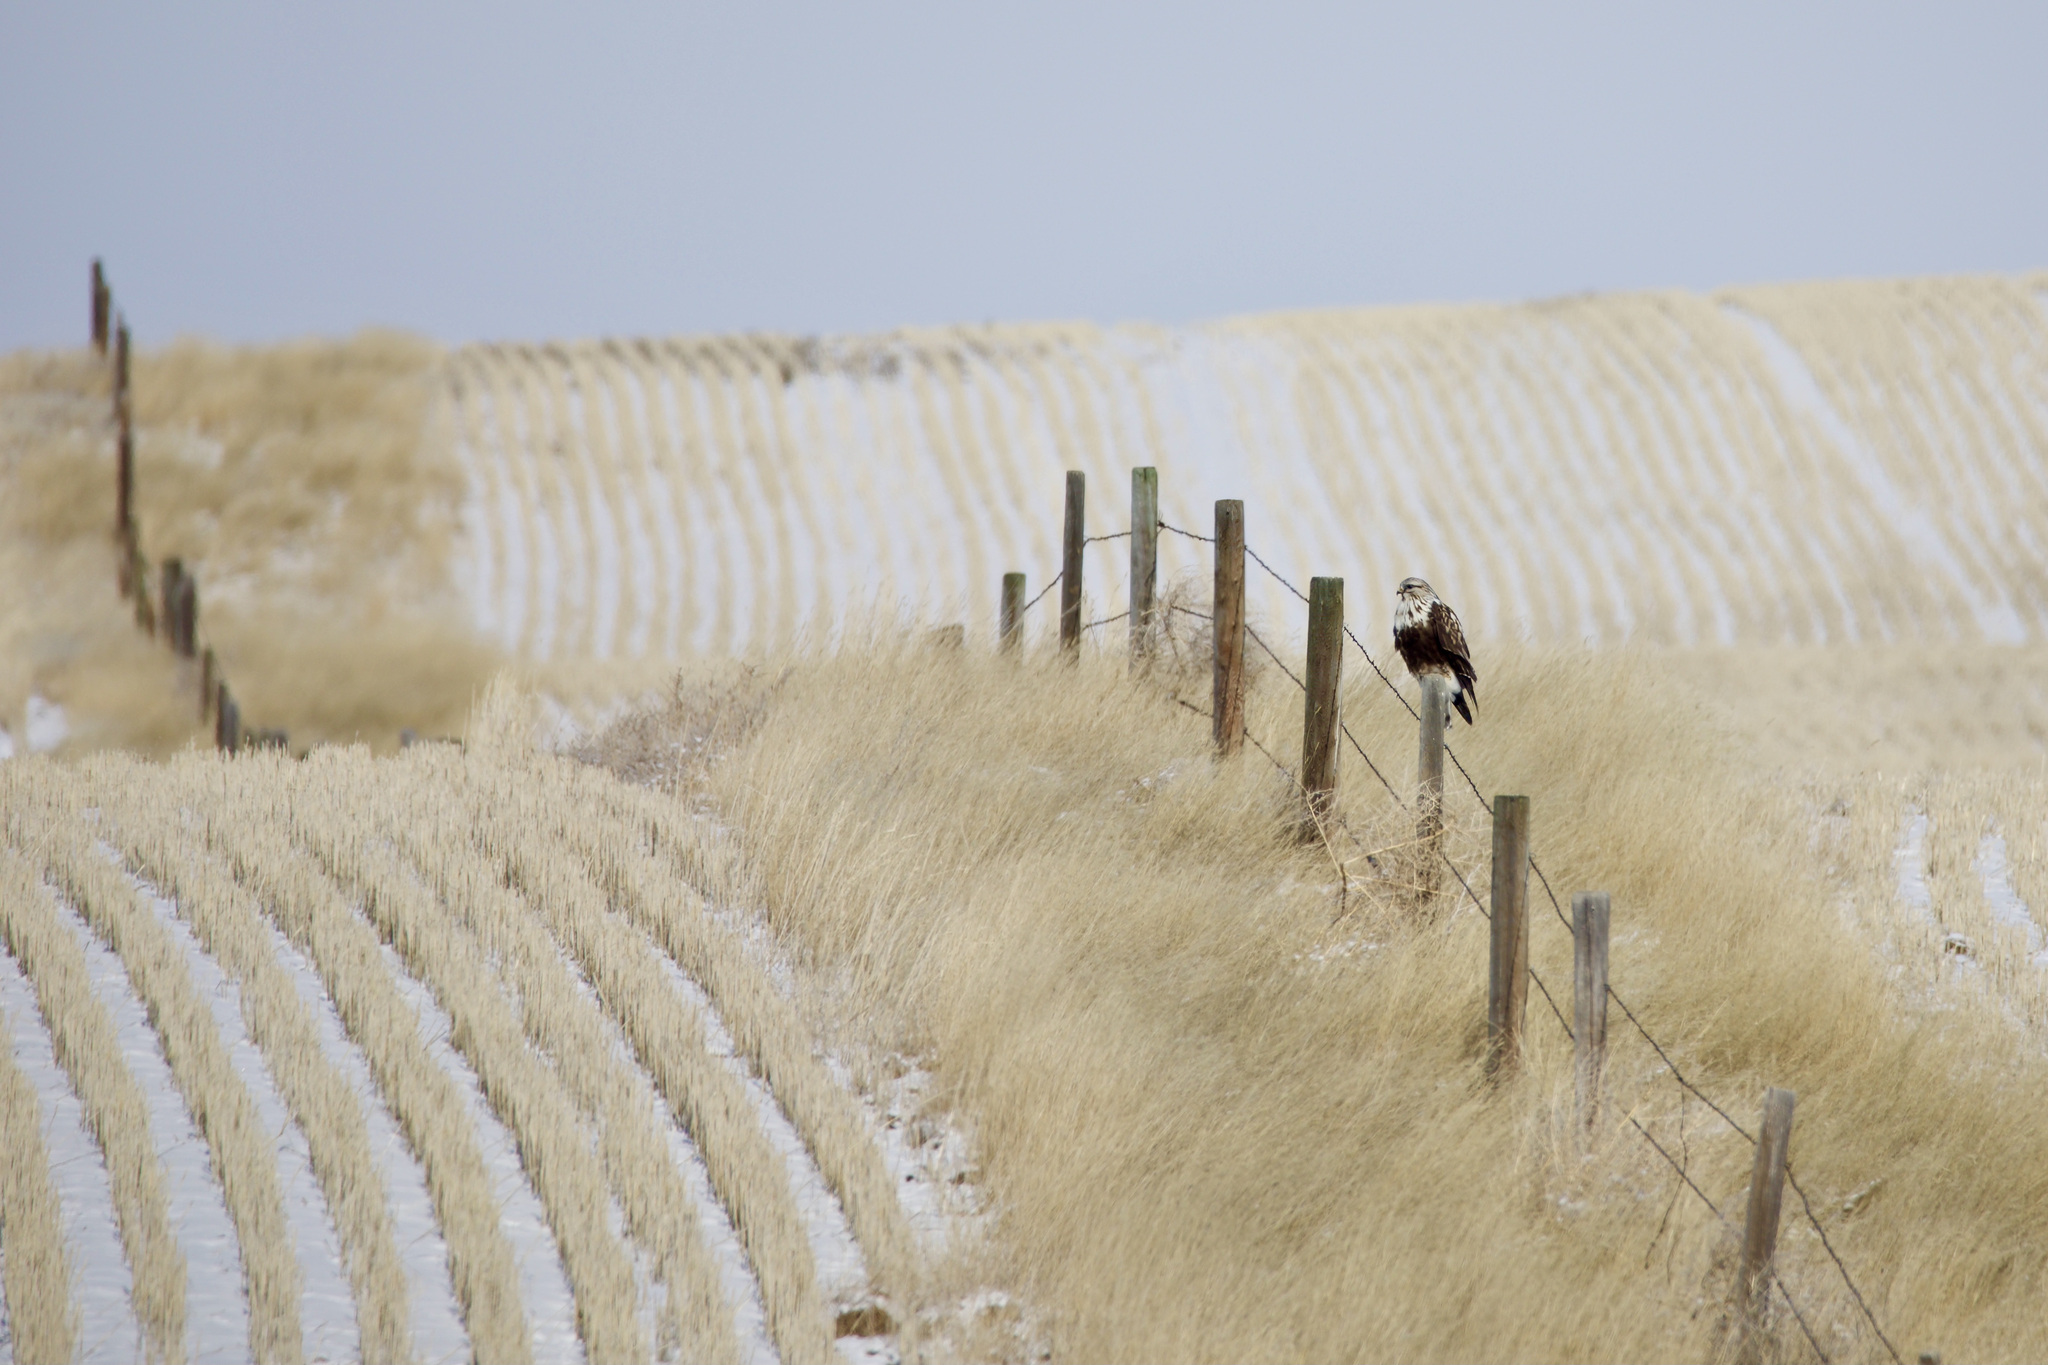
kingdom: Animalia
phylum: Chordata
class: Aves
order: Accipitriformes
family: Accipitridae
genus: Buteo
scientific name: Buteo lagopus
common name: Rough-legged buzzard
